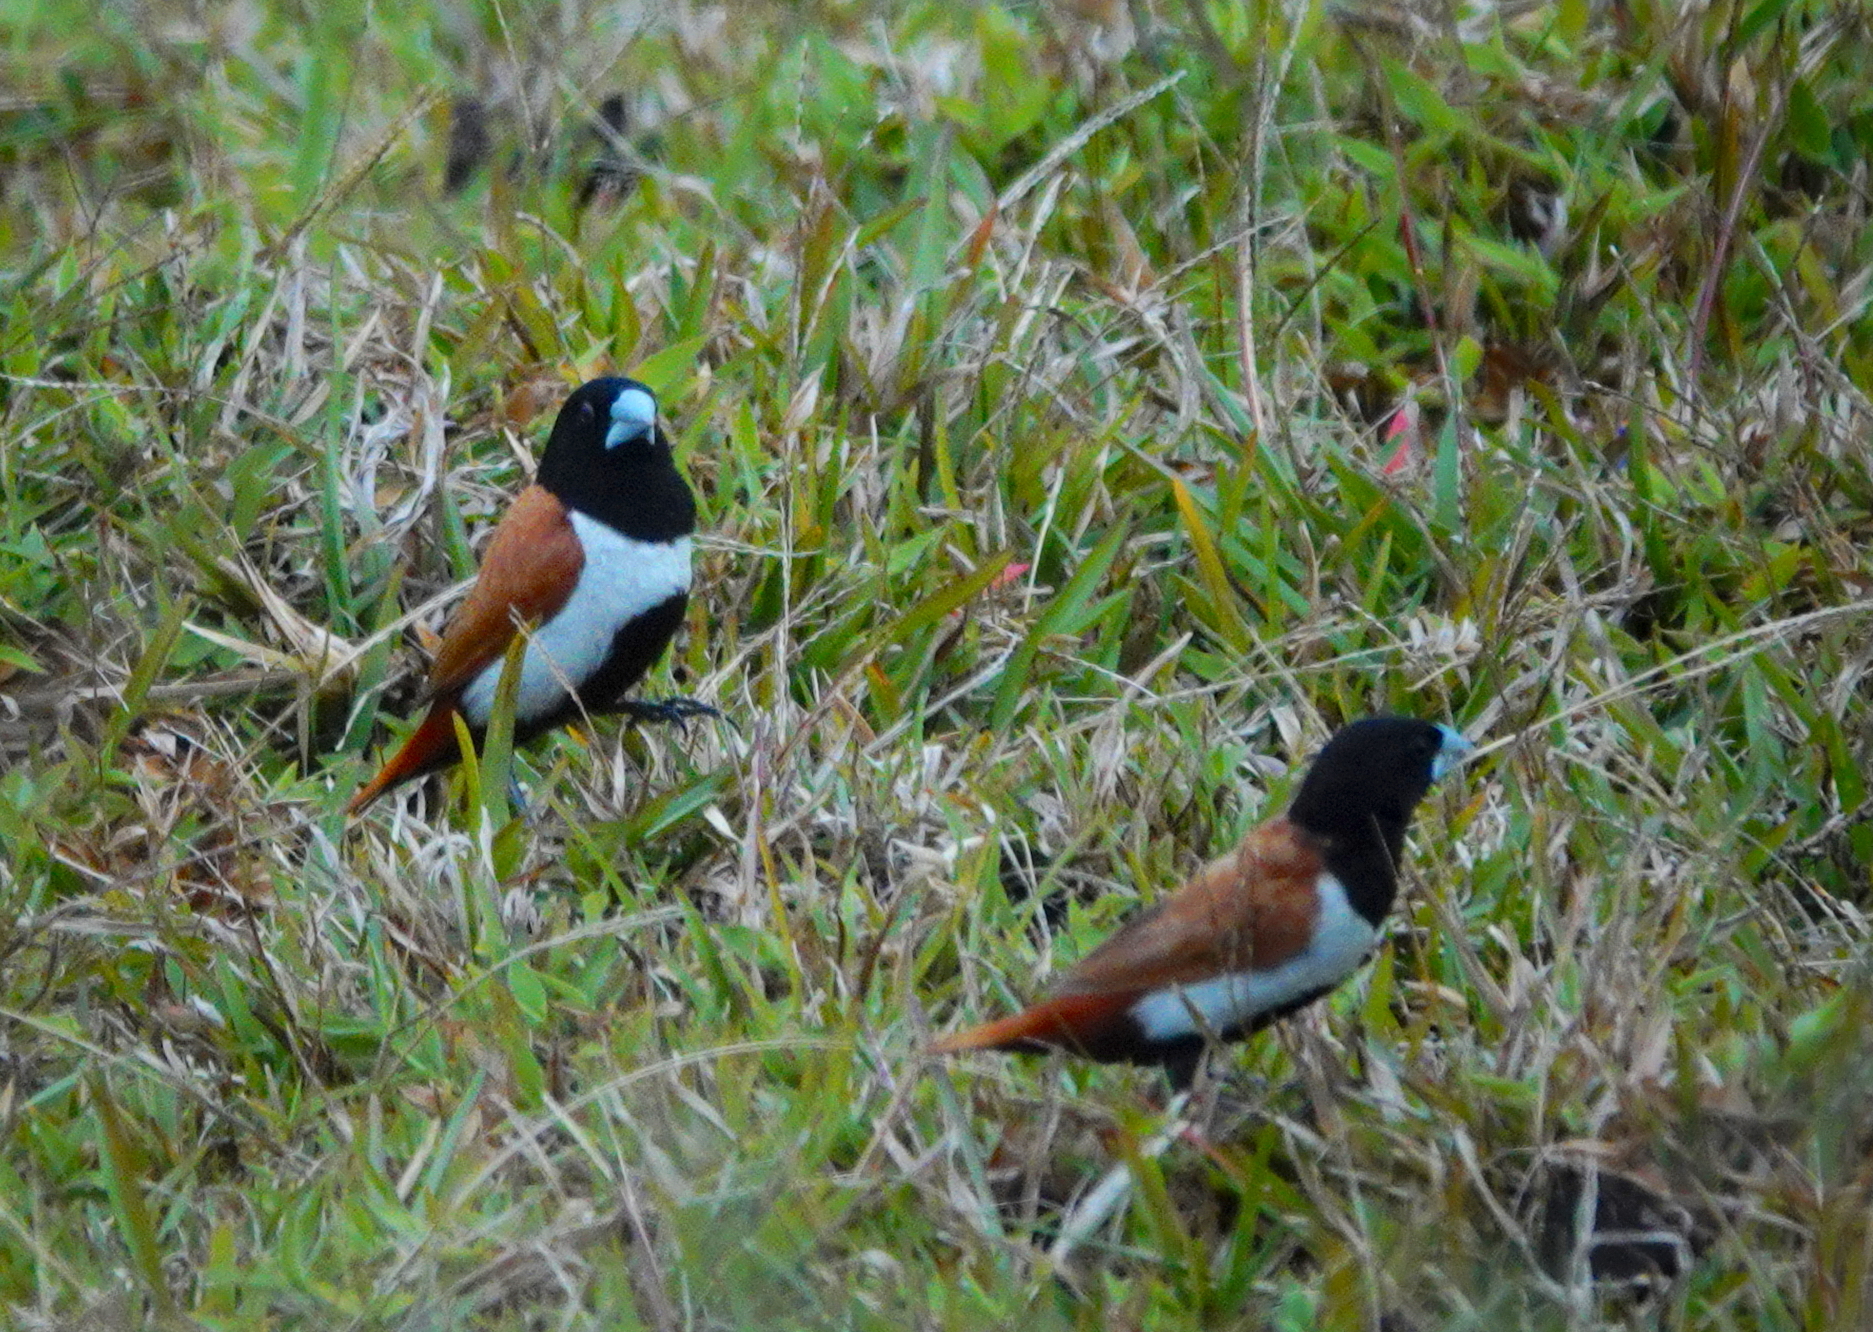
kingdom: Animalia
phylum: Chordata
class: Aves
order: Passeriformes
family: Estrildidae
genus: Lonchura
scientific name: Lonchura malacca
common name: Tricolored munia
